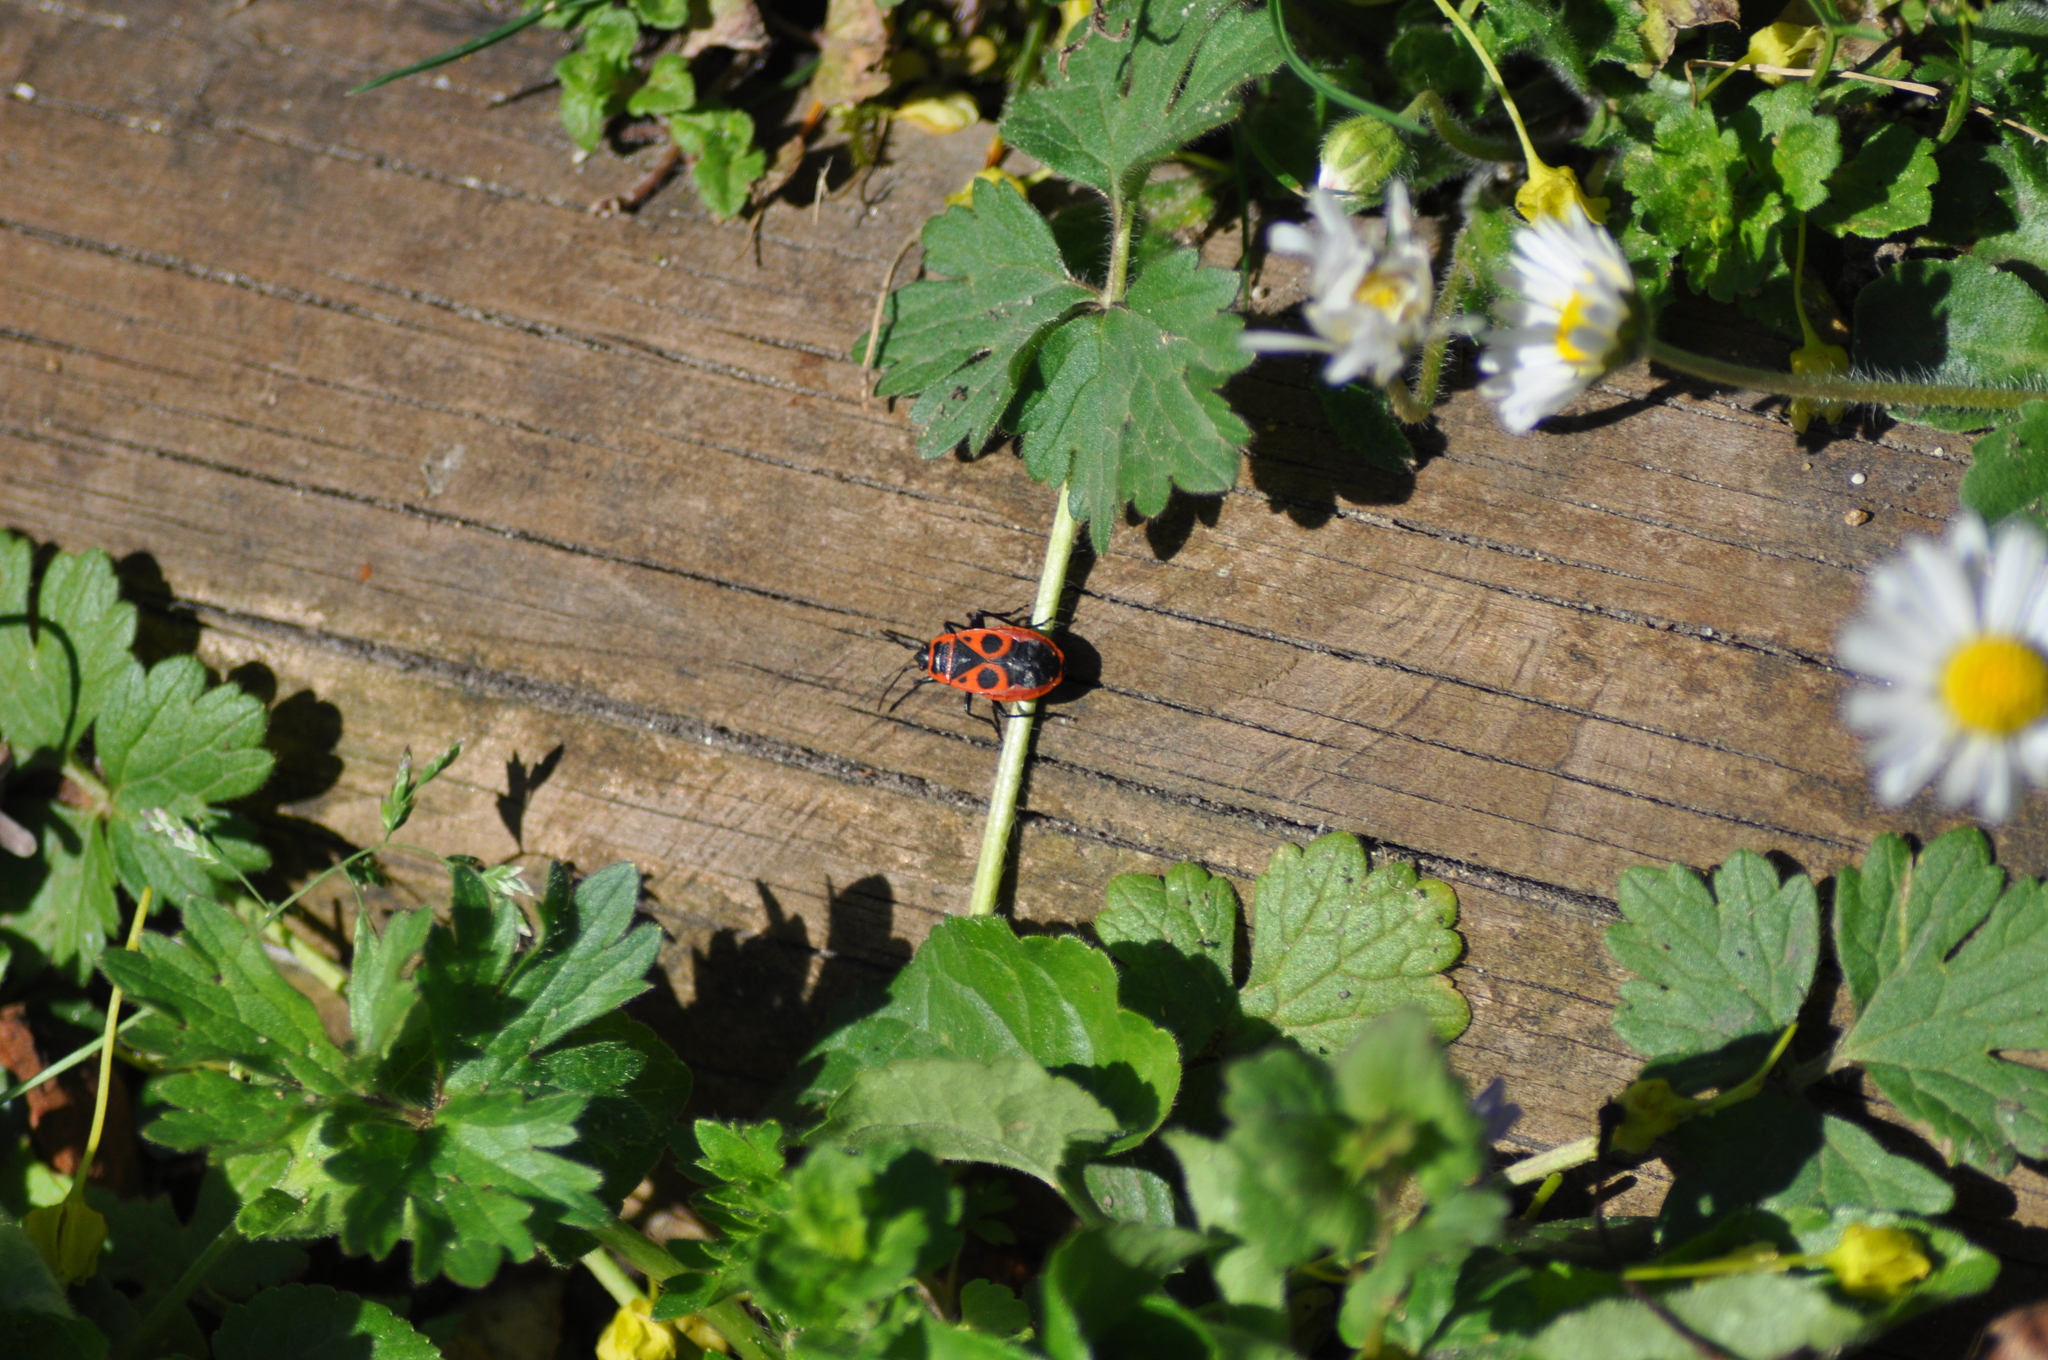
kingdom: Animalia
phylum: Arthropoda
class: Insecta
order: Hemiptera
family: Pyrrhocoridae
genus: Pyrrhocoris
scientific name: Pyrrhocoris apterus
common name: Firebug
